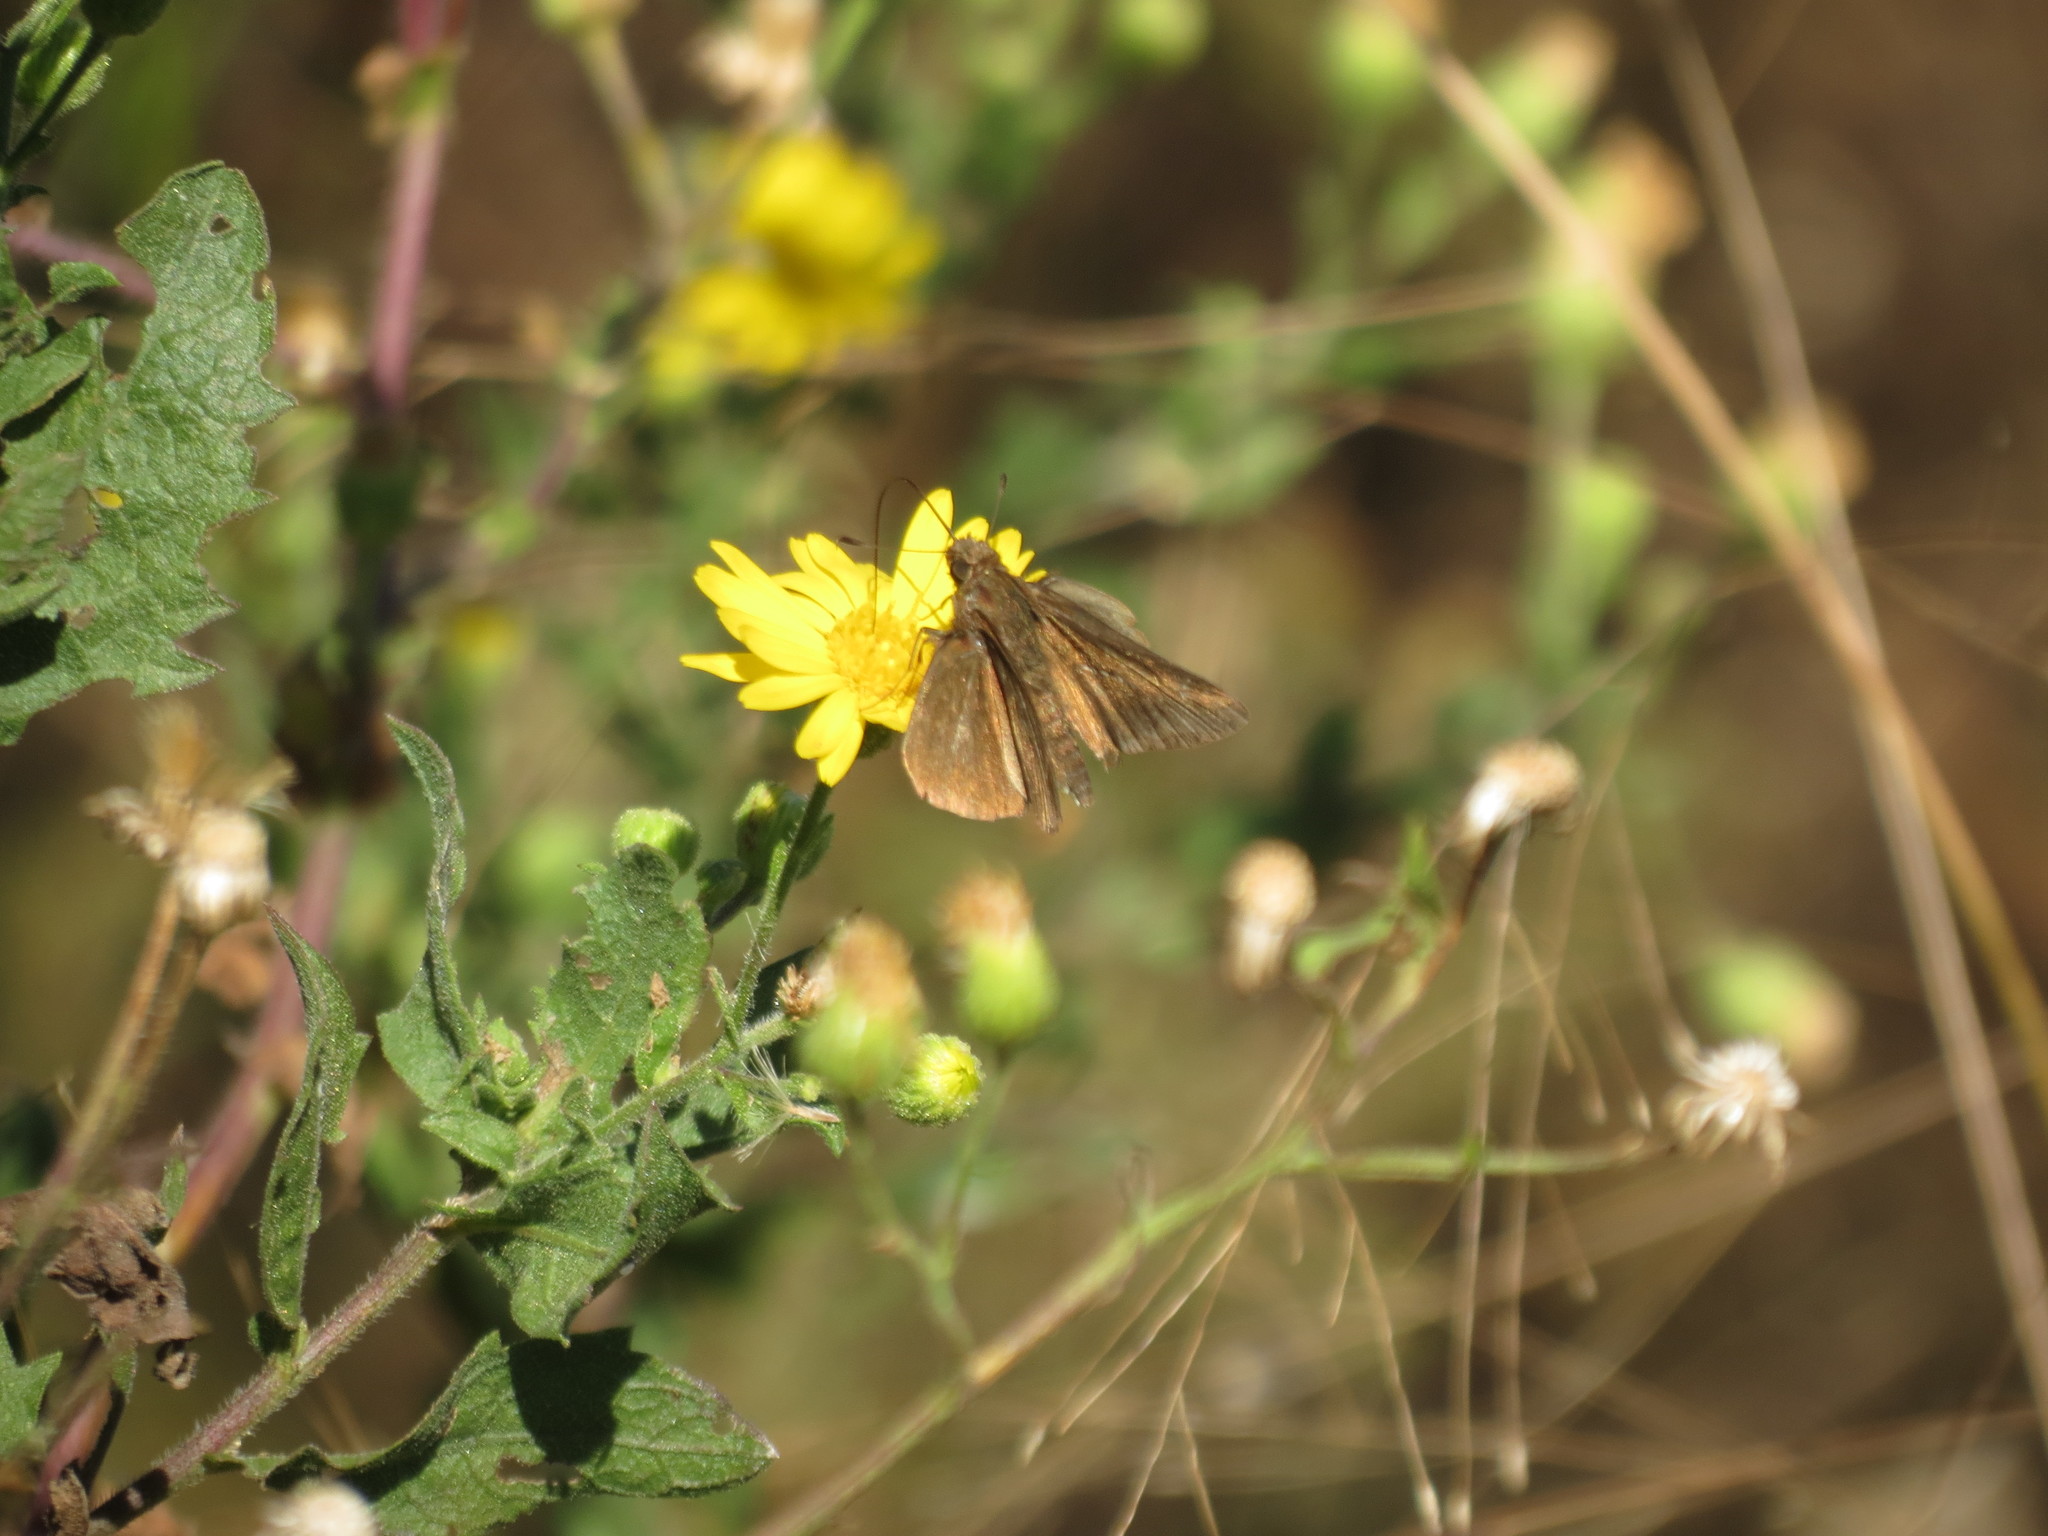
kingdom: Animalia
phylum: Arthropoda
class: Insecta
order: Lepidoptera
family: Hesperiidae
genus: Lerema
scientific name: Lerema accius
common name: Clouded skipper
